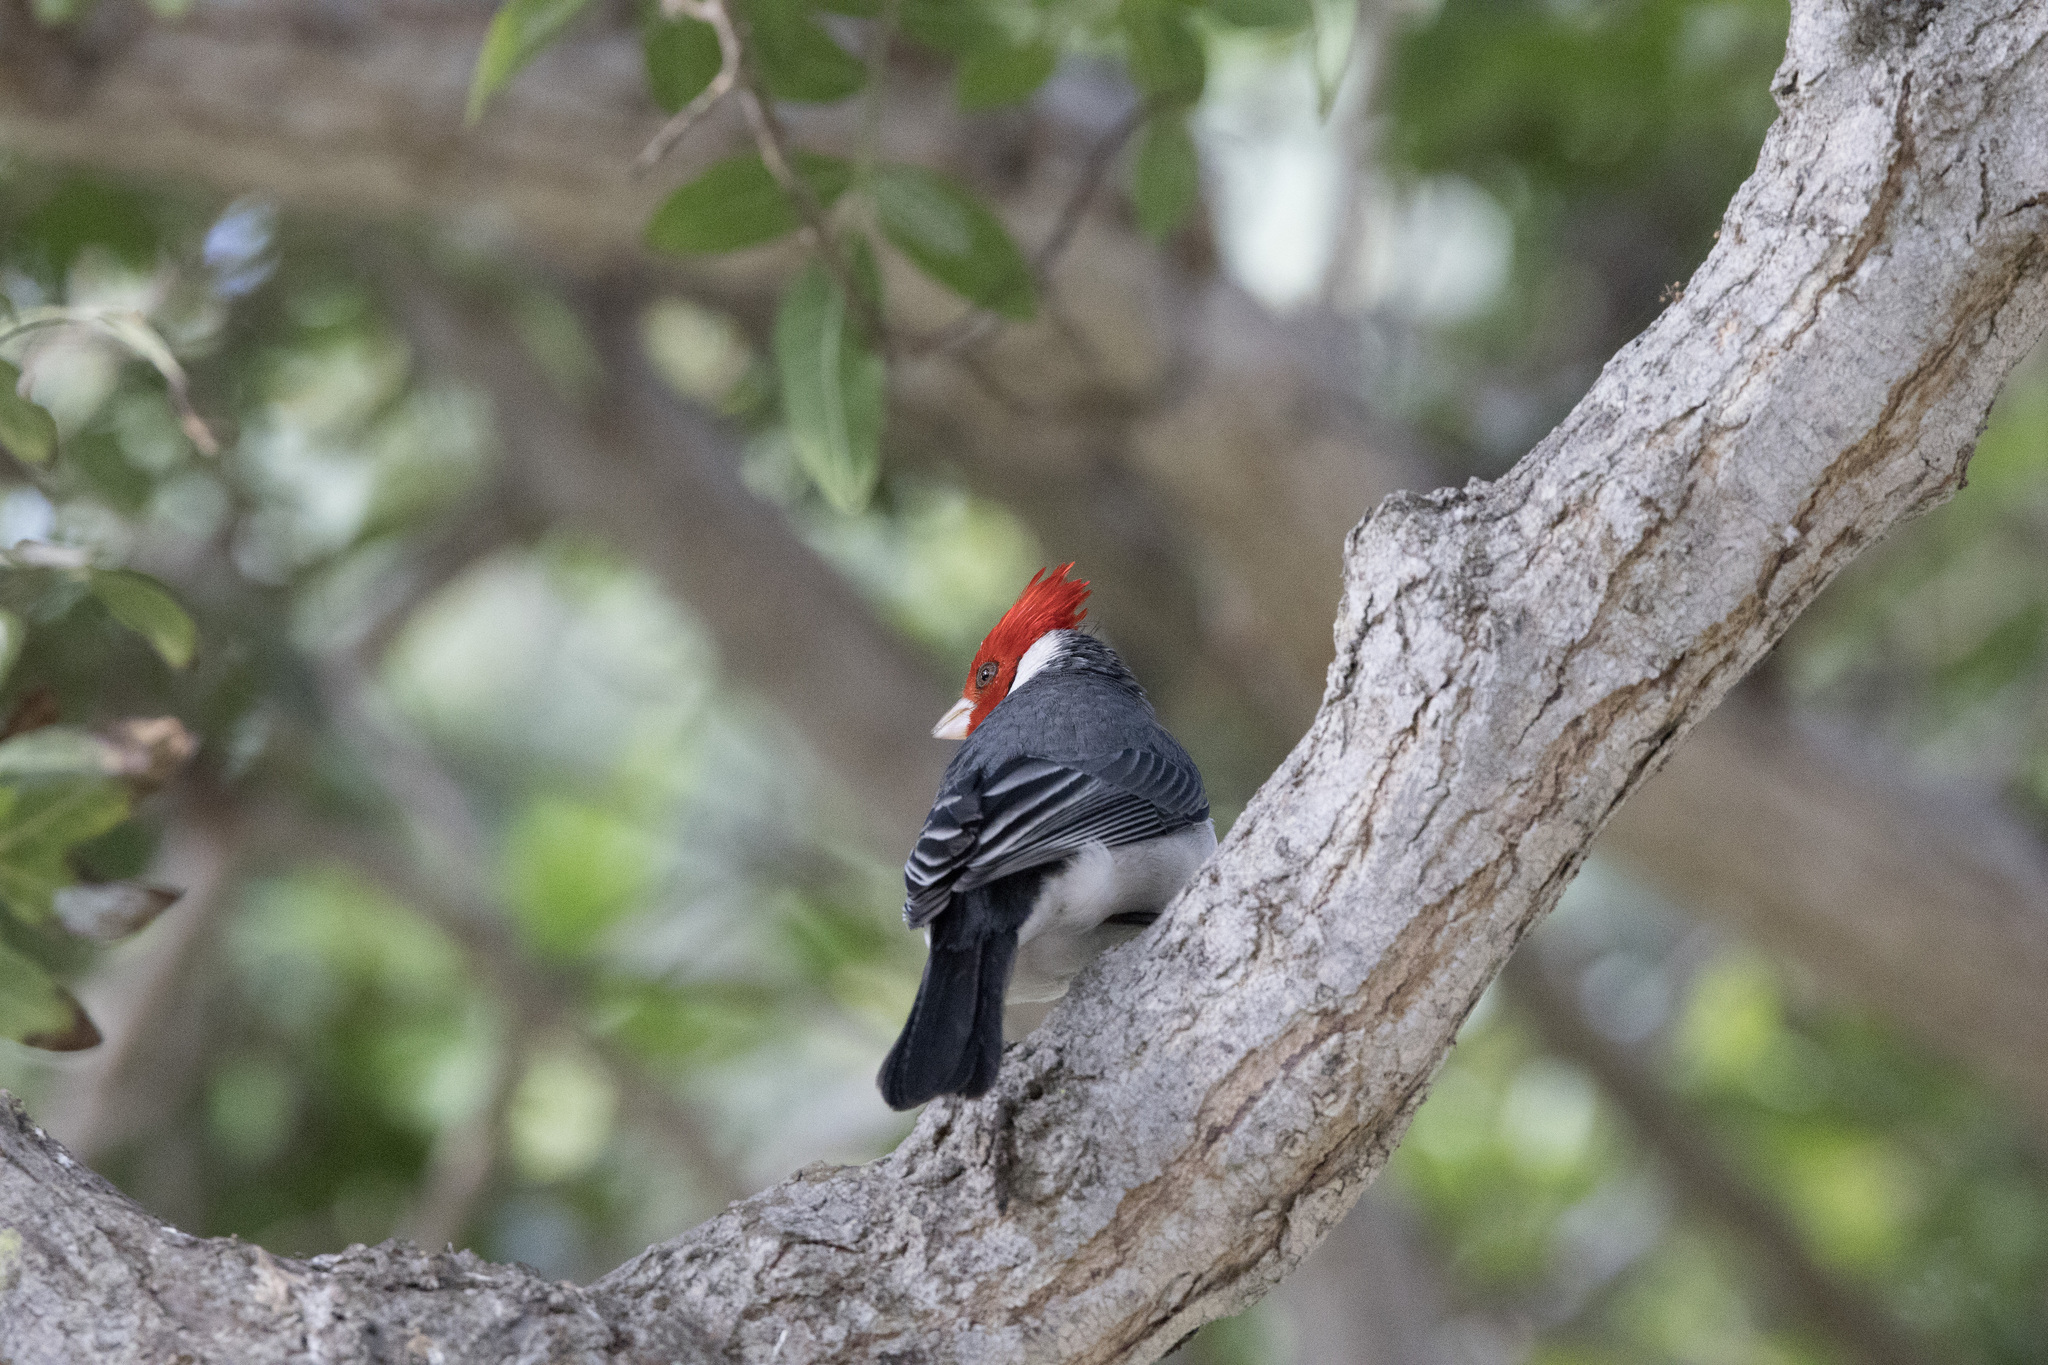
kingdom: Animalia
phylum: Chordata
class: Aves
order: Passeriformes
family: Thraupidae
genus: Paroaria
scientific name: Paroaria coronata
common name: Red-crested cardinal
